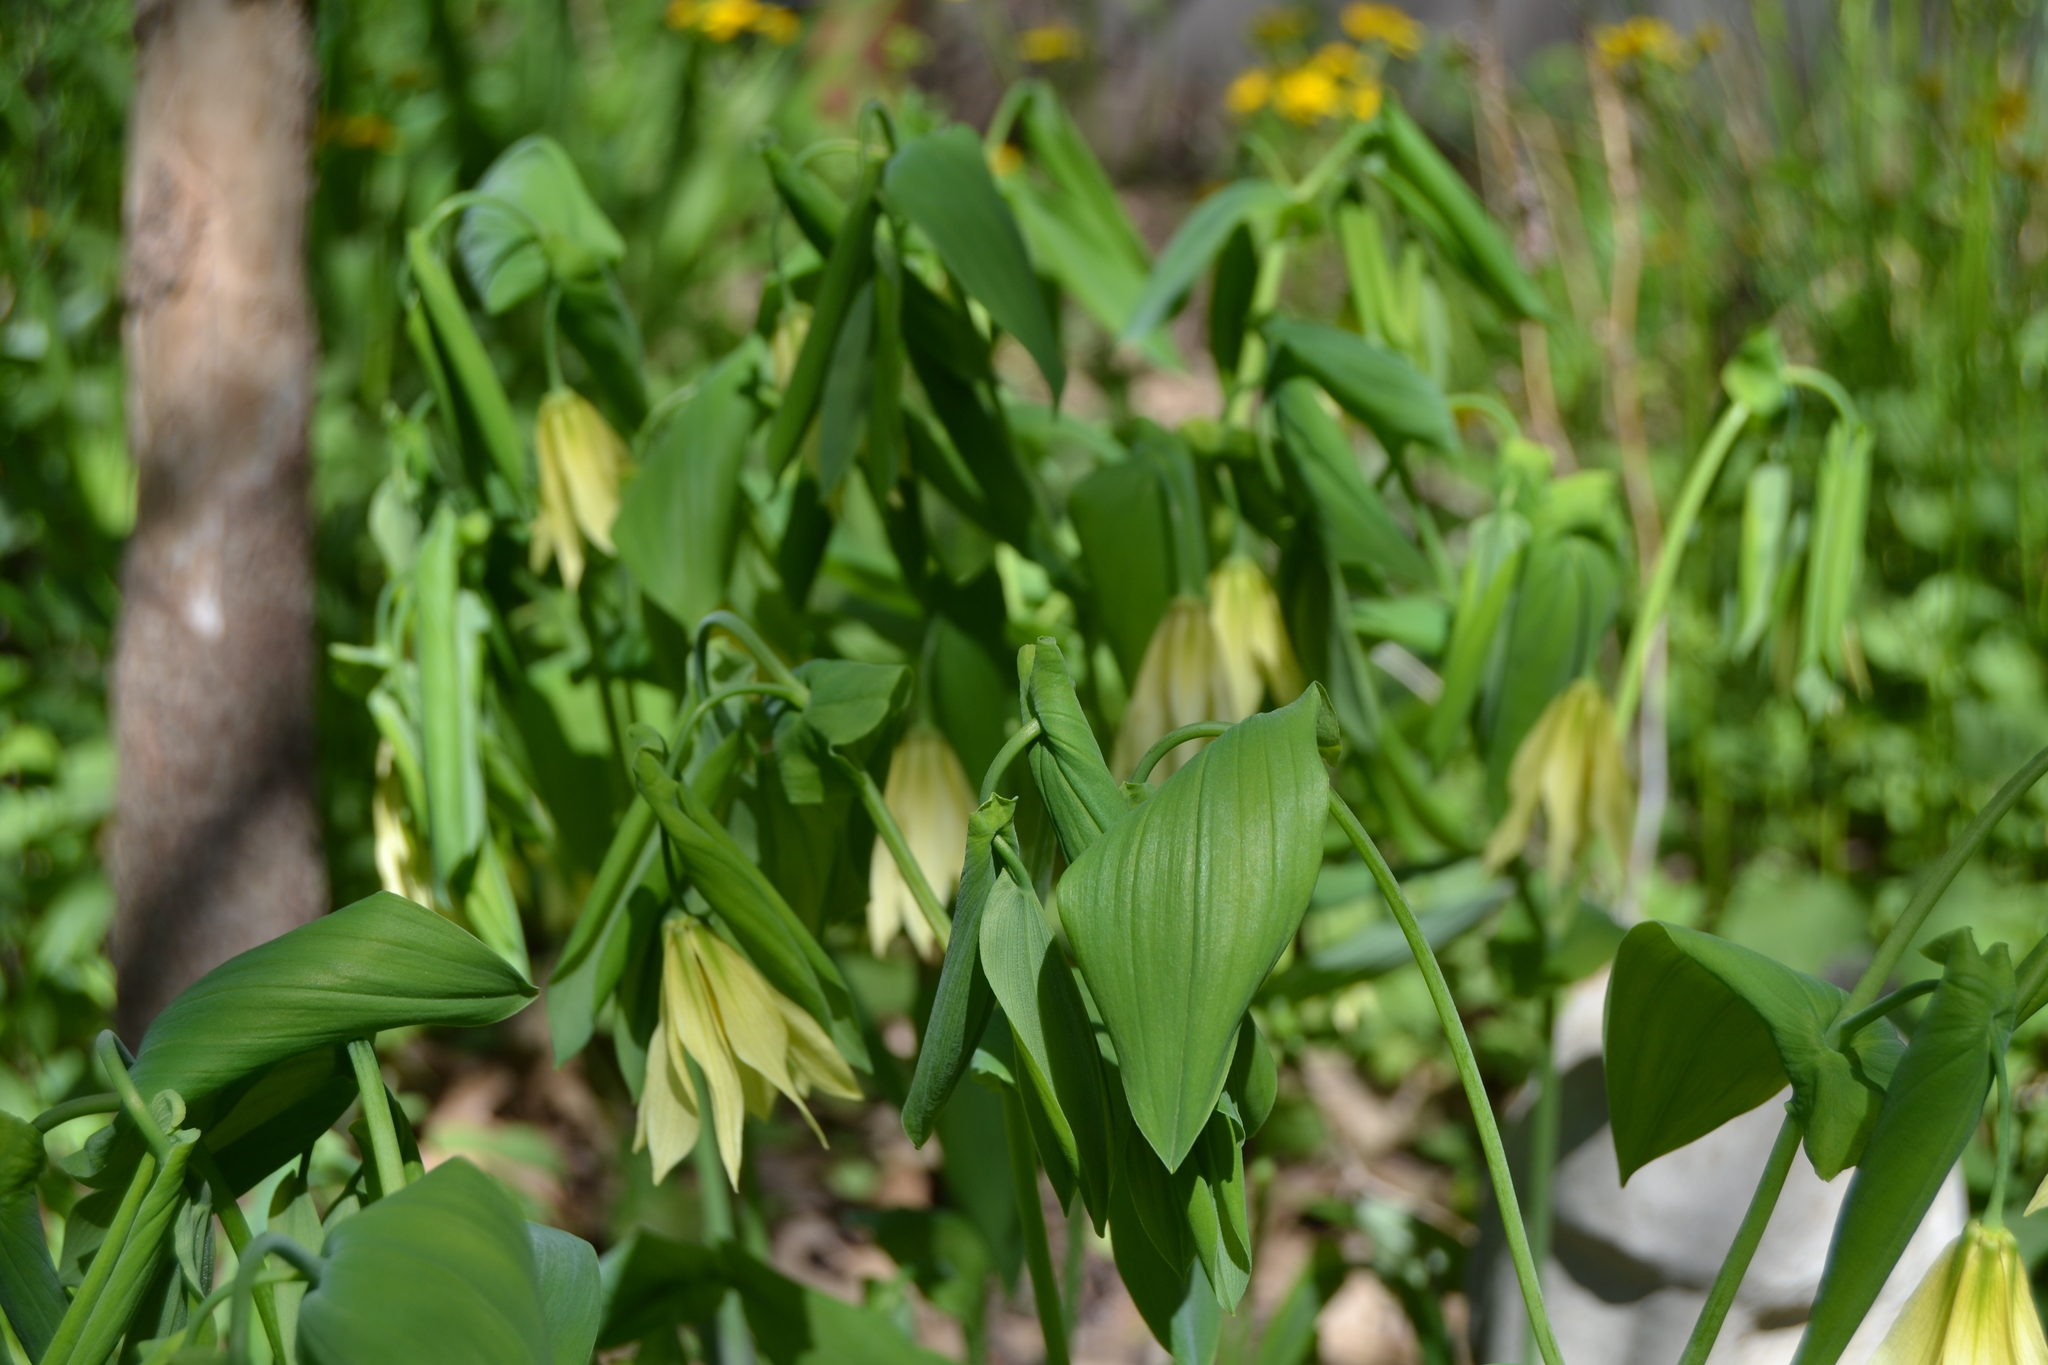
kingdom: Plantae
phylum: Tracheophyta
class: Liliopsida
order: Liliales
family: Colchicaceae
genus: Uvularia
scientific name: Uvularia grandiflora
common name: Bellwort
